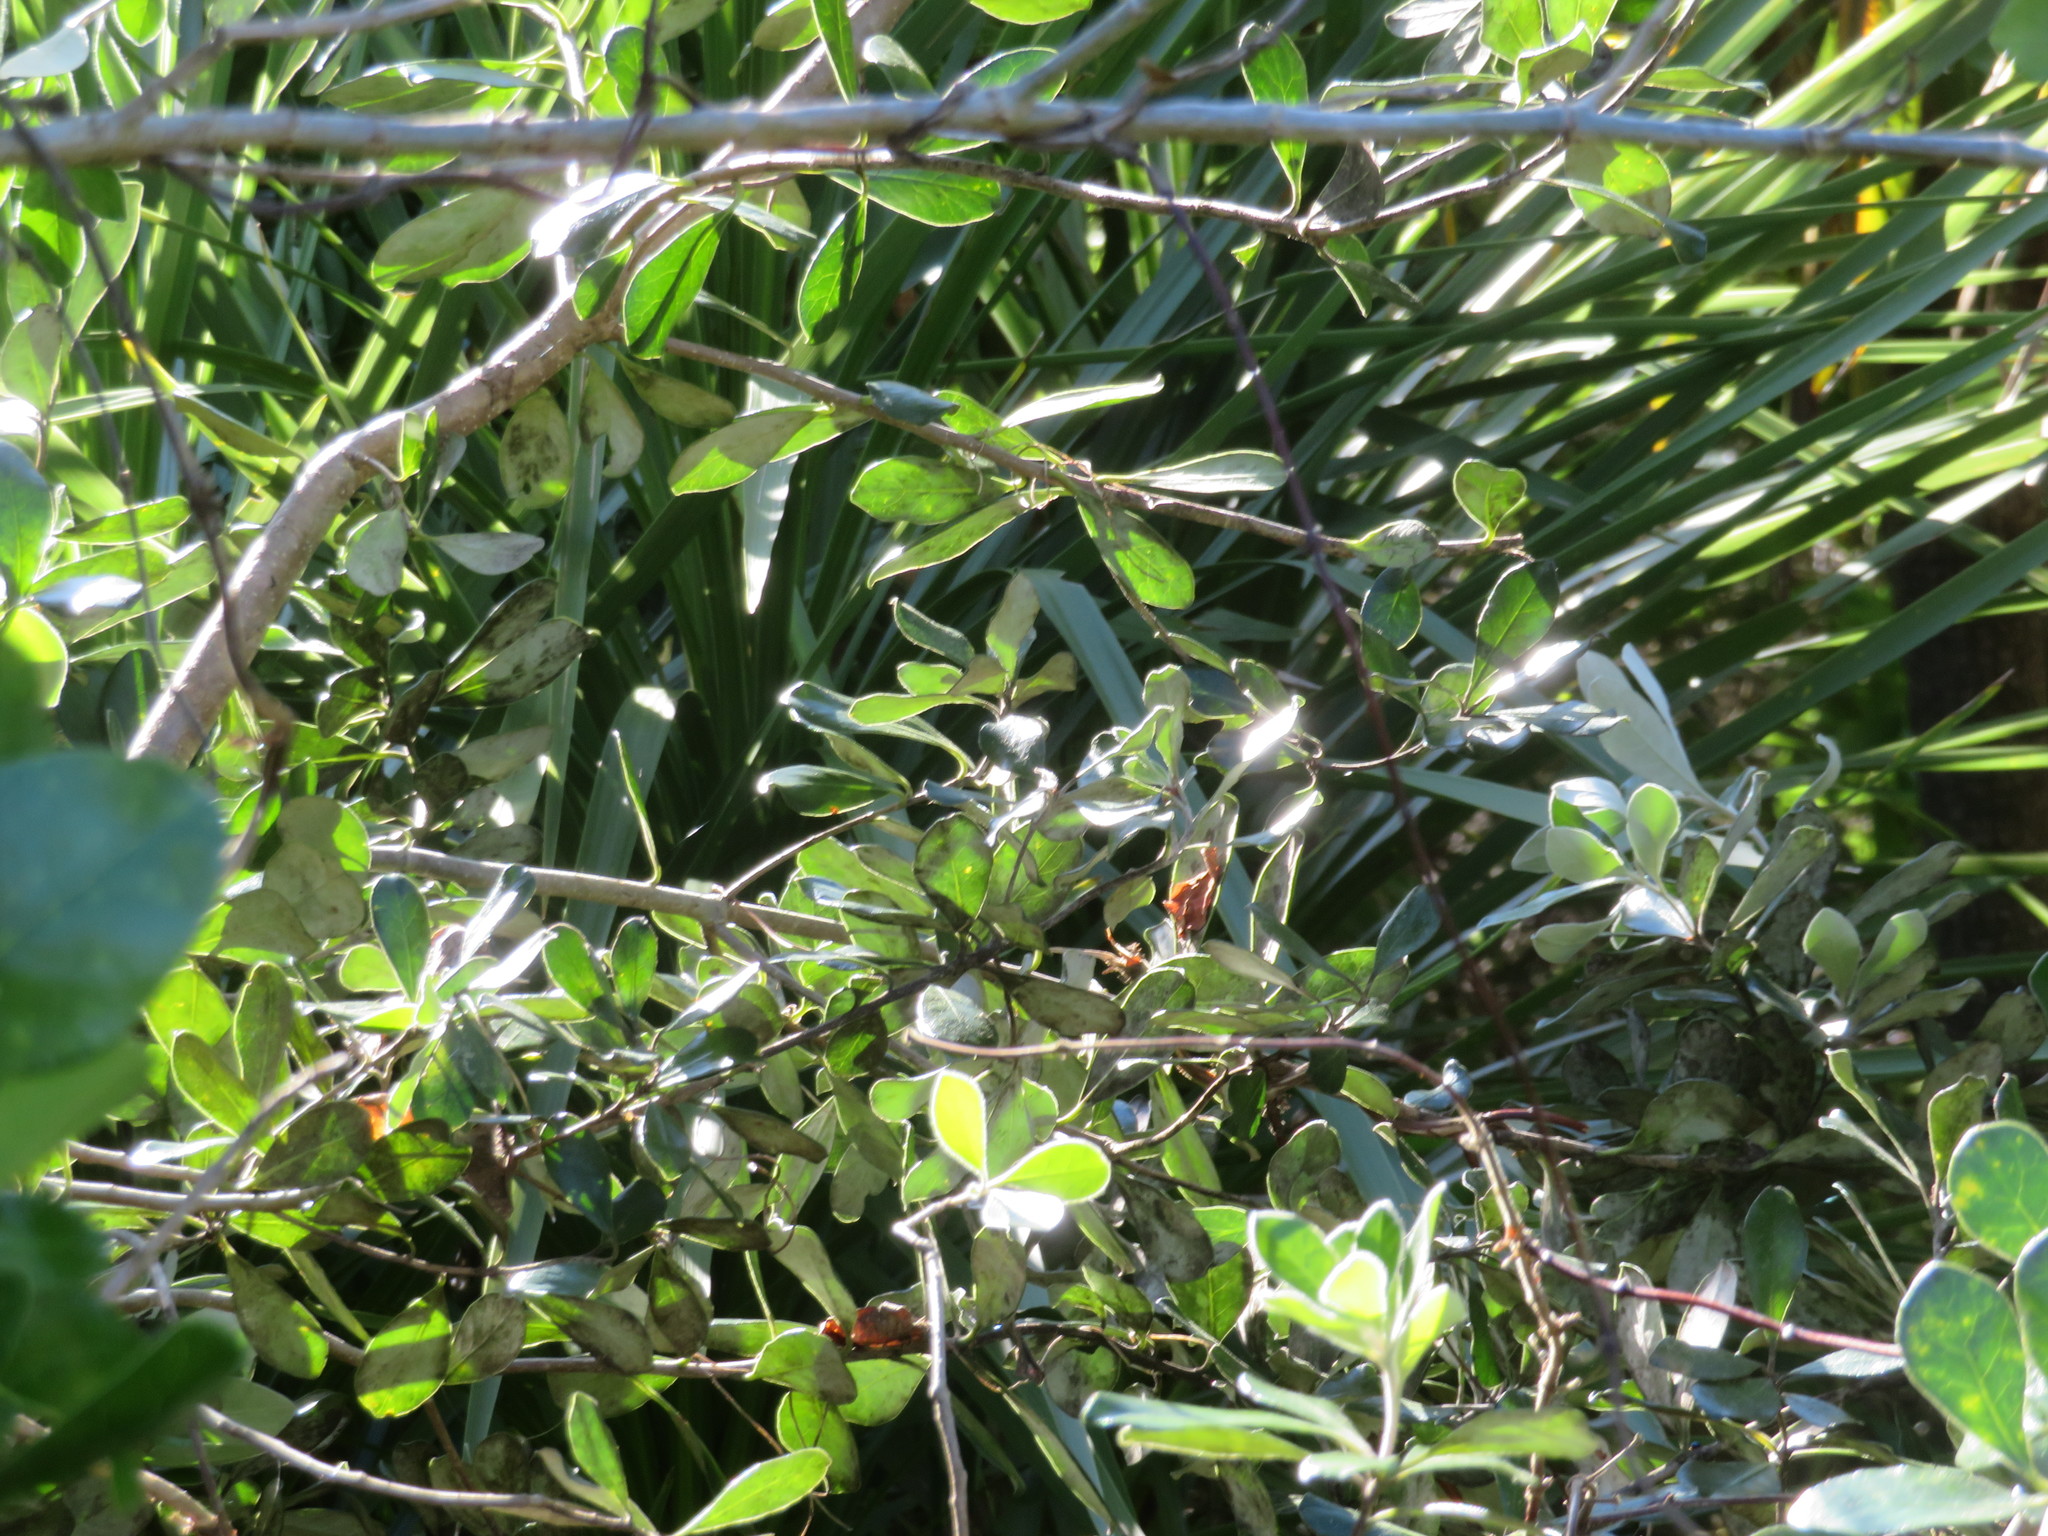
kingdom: Plantae
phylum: Tracheophyta
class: Magnoliopsida
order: Apiales
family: Pittosporaceae
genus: Pittosporum
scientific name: Pittosporum crassifolium
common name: Karo
